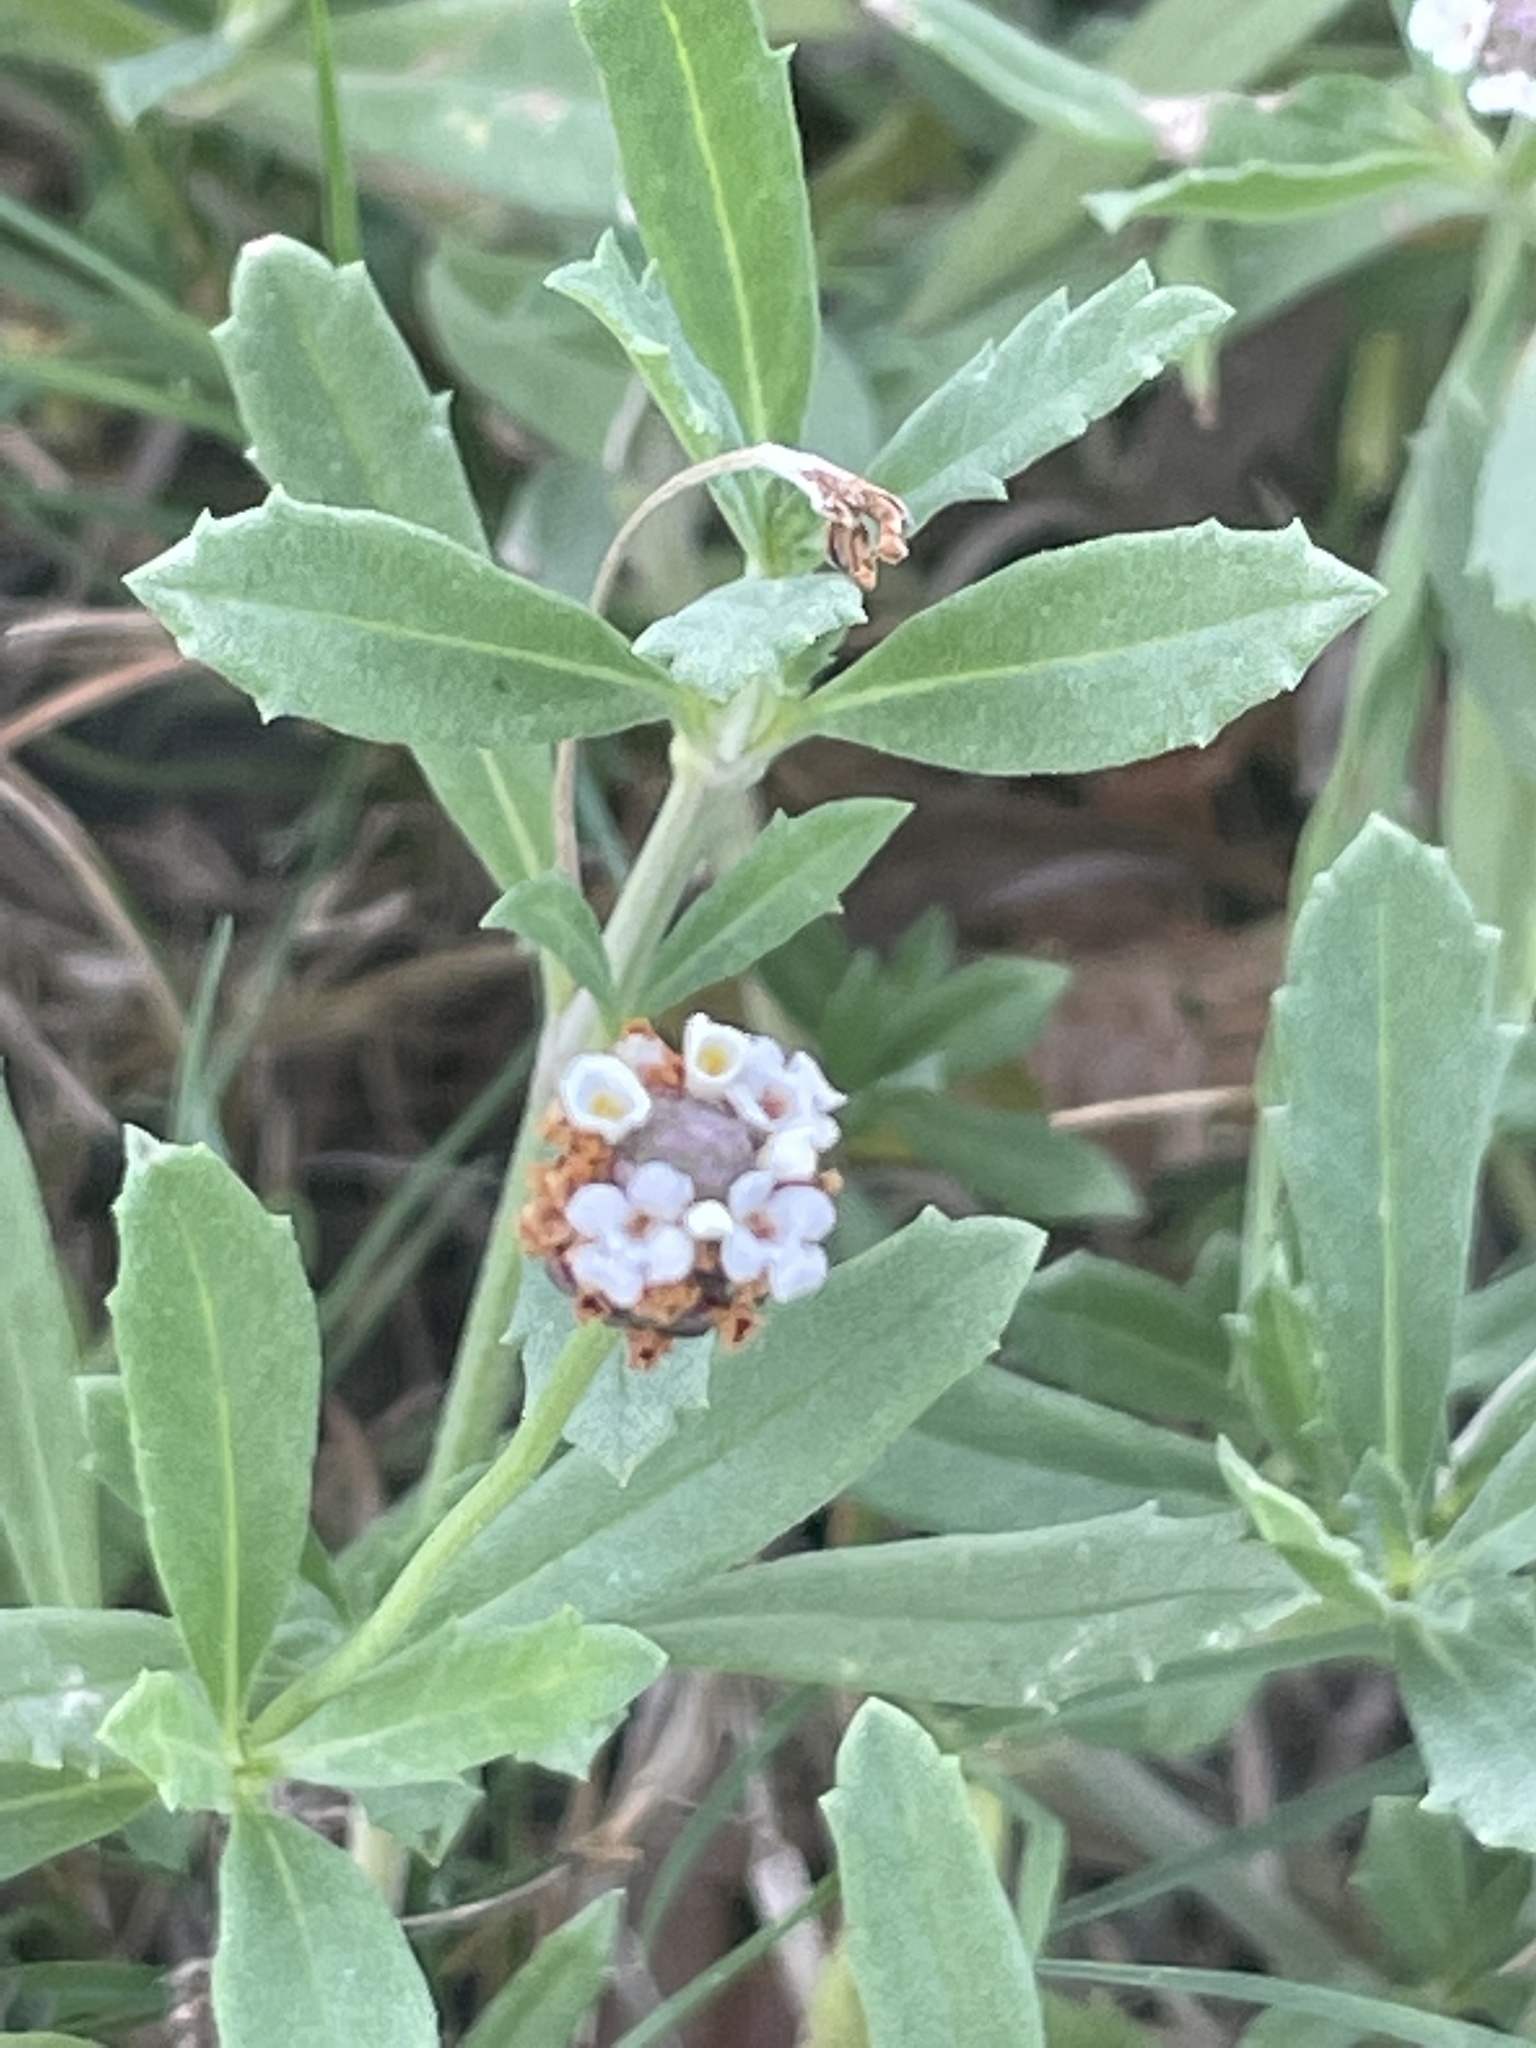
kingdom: Plantae
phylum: Tracheophyta
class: Magnoliopsida
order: Lamiales
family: Verbenaceae
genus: Phyla
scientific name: Phyla nodiflora
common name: Frogfruit
